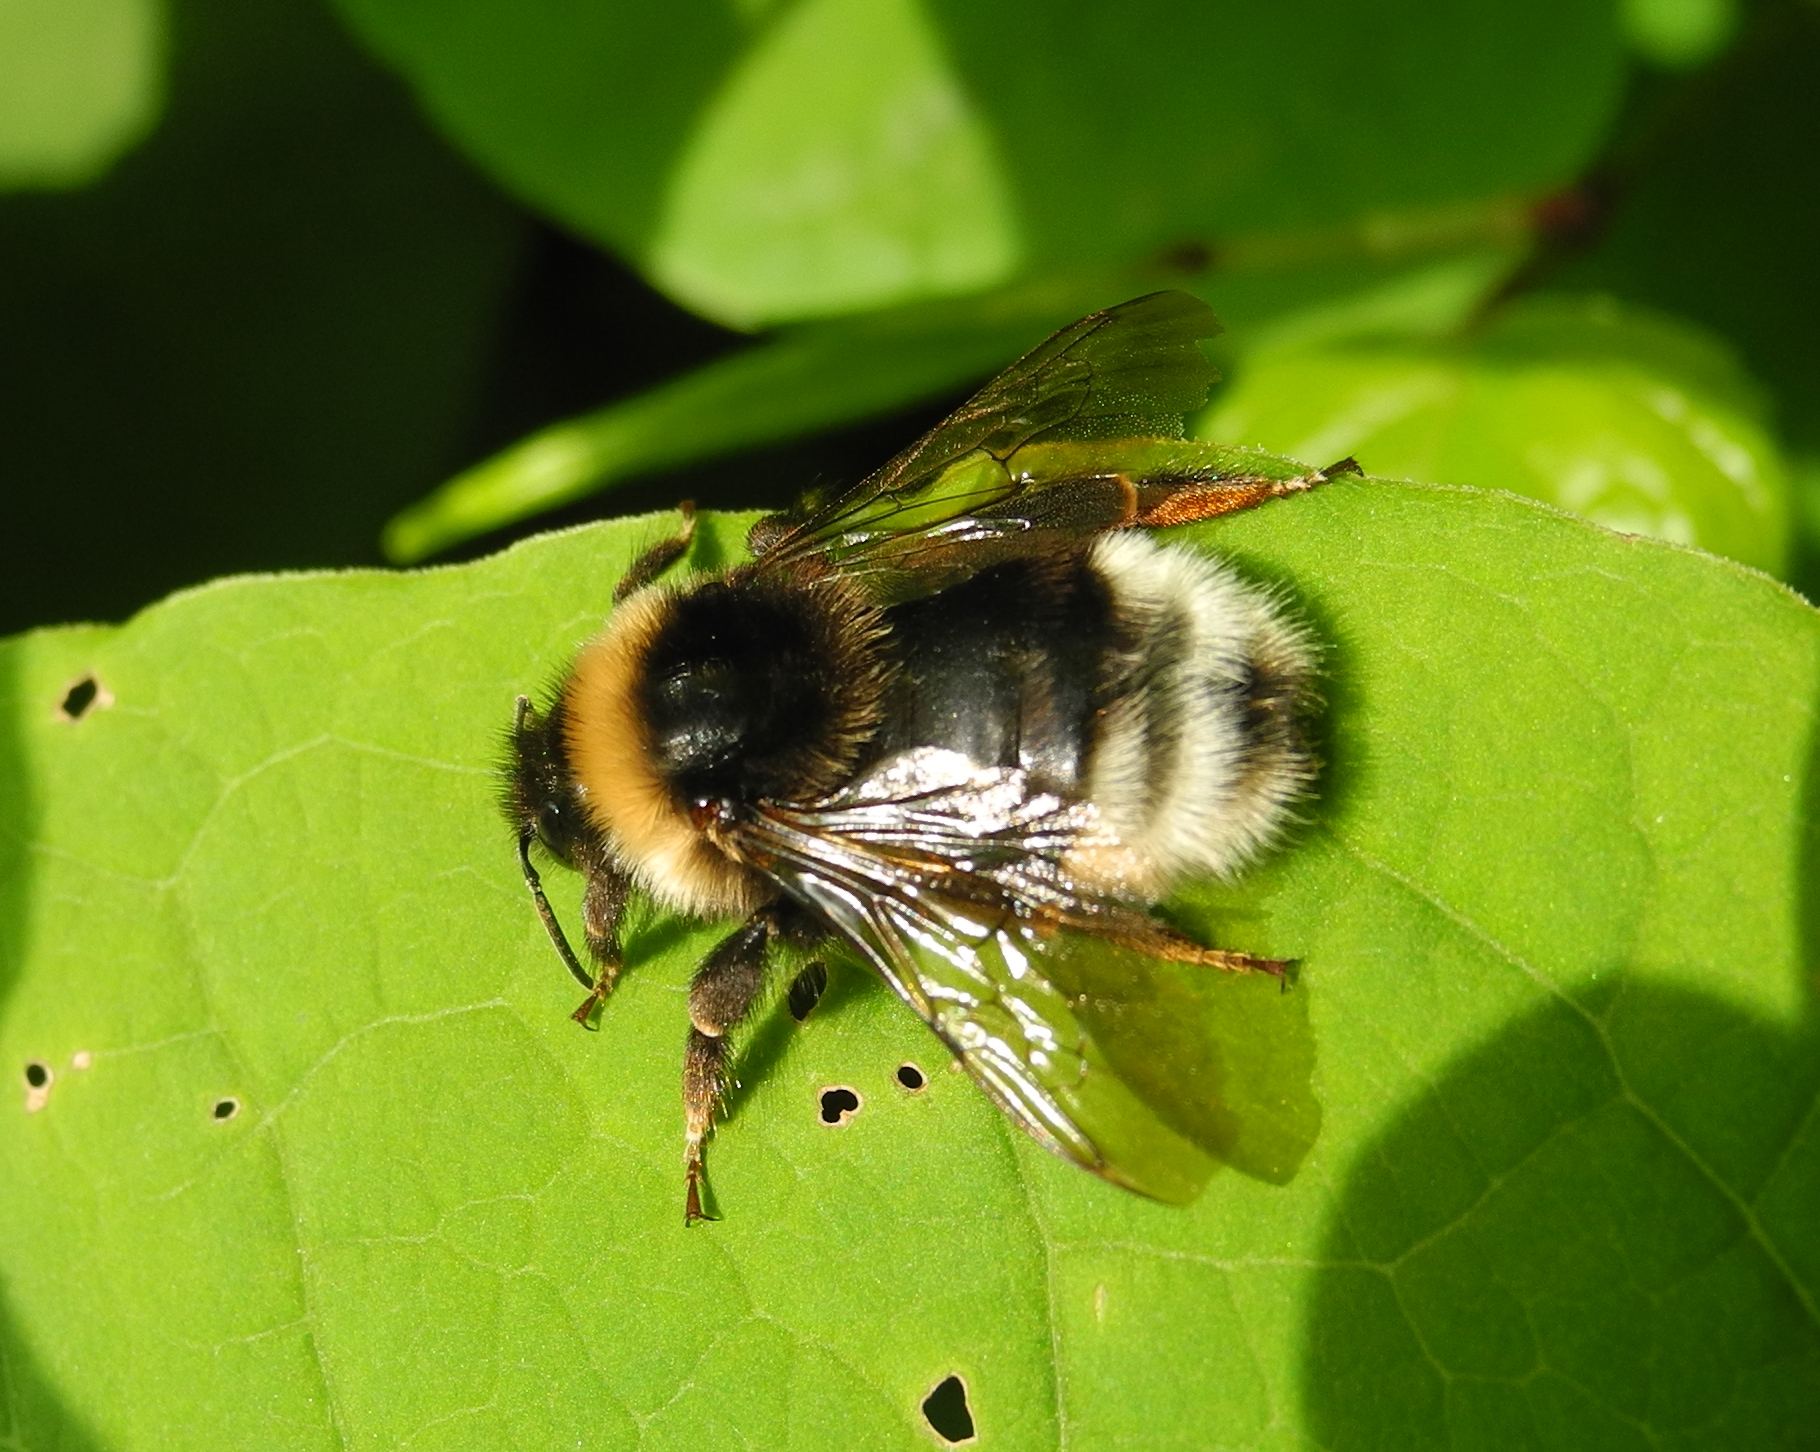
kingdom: Animalia
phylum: Arthropoda
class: Insecta
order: Hymenoptera
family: Apidae
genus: Bombus
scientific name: Bombus bohemicus
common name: Gypsy cuckoo bee
